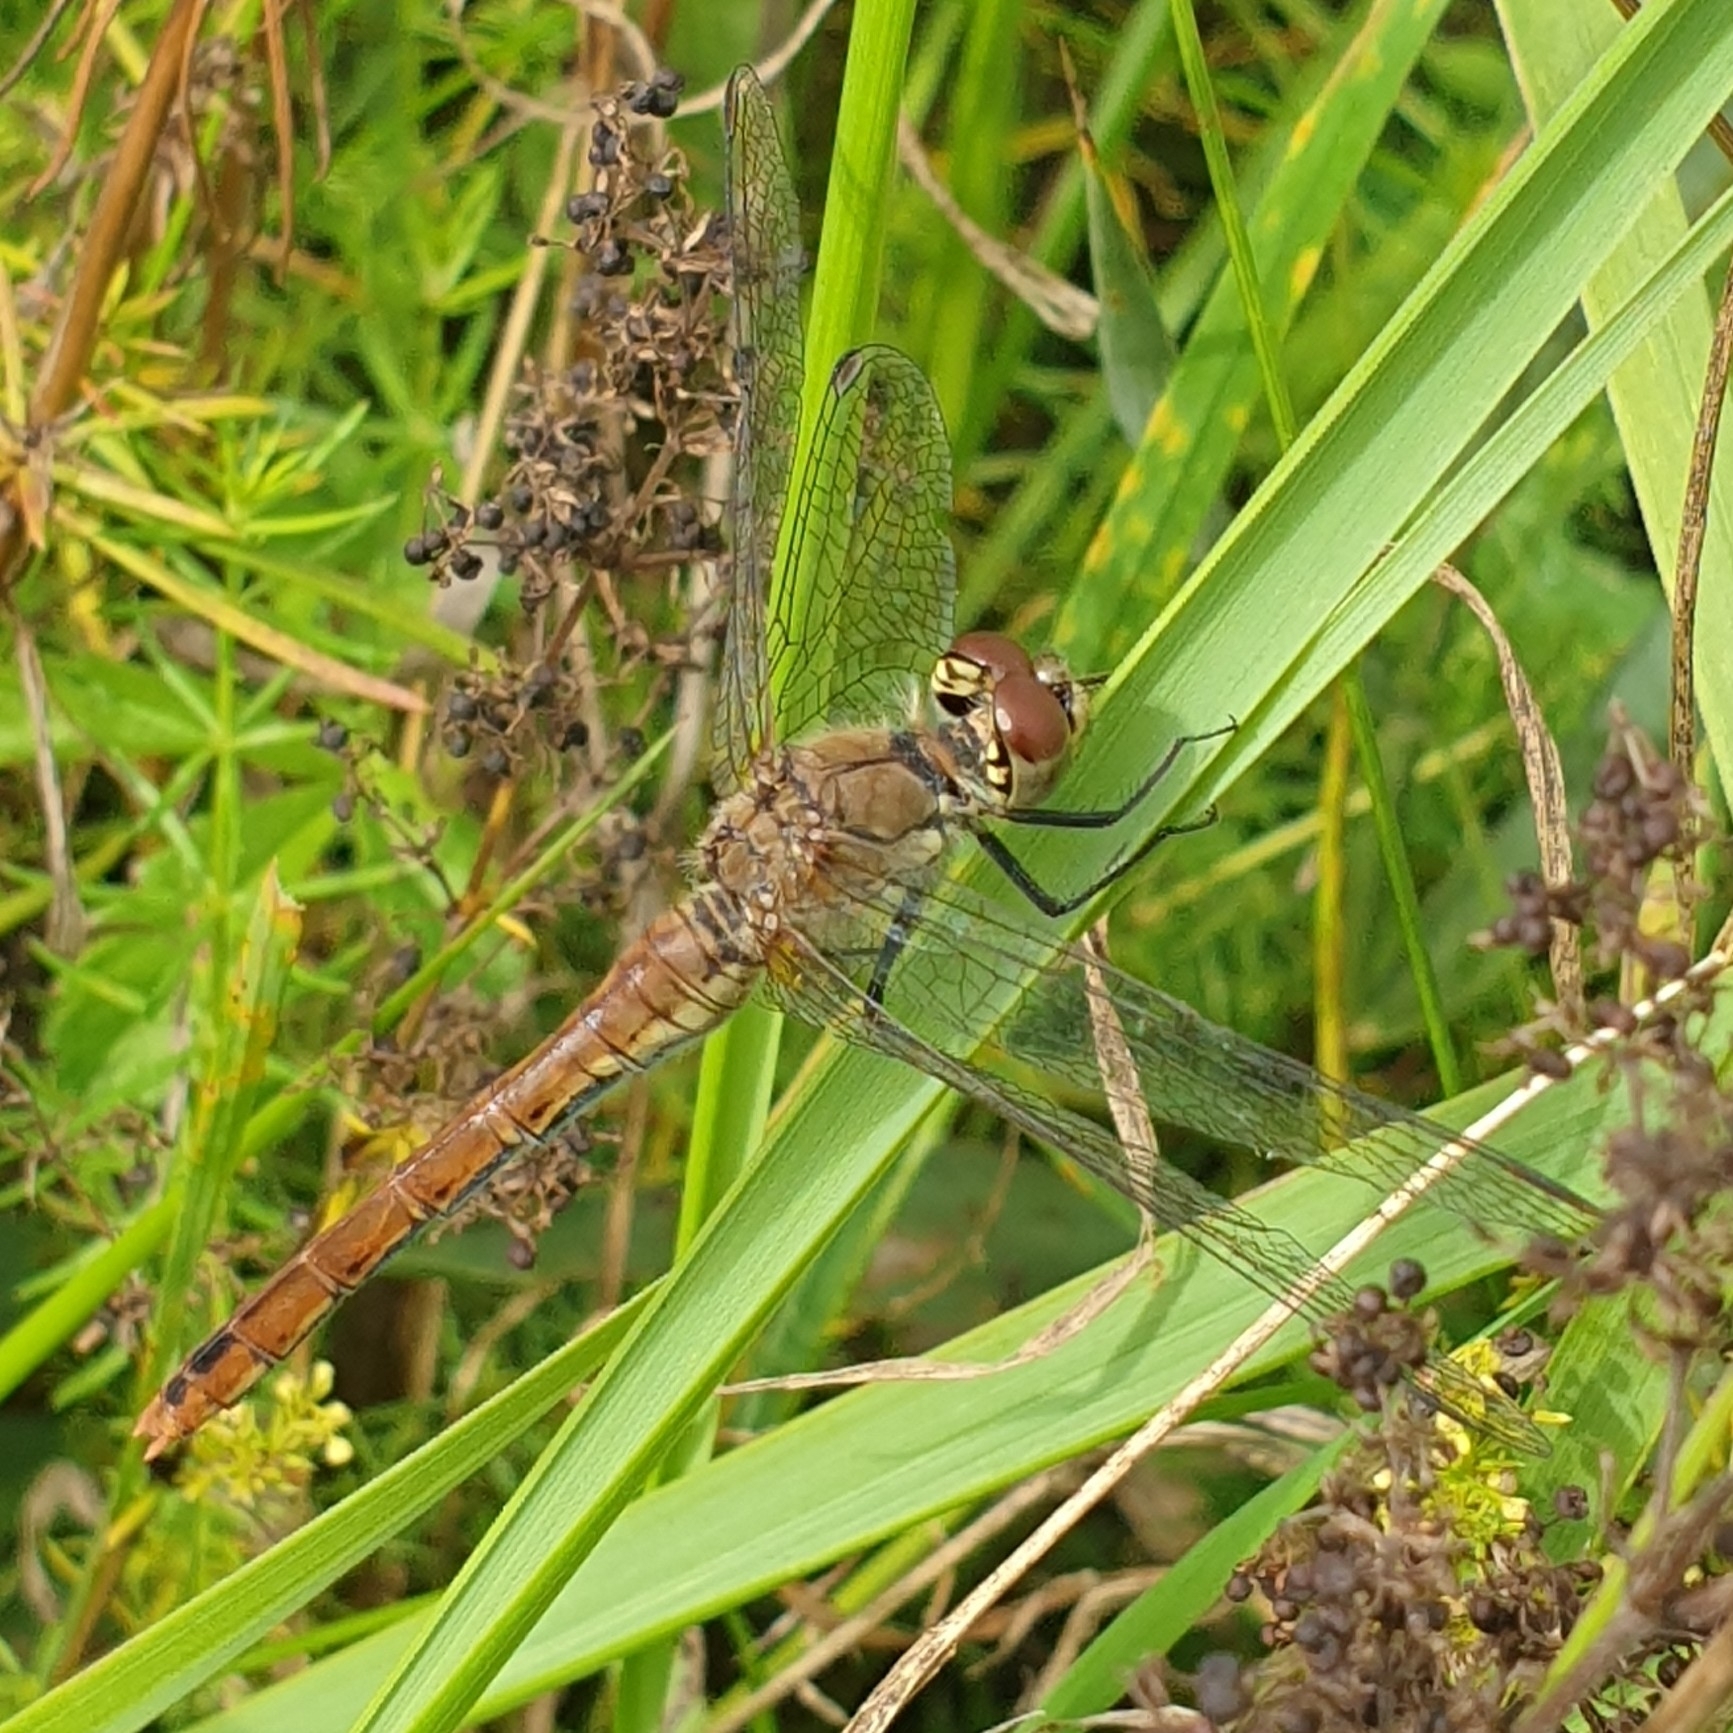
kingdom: Animalia
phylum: Arthropoda
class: Insecta
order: Odonata
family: Libellulidae
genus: Sympetrum
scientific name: Sympetrum sanguineum
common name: Ruddy darter
